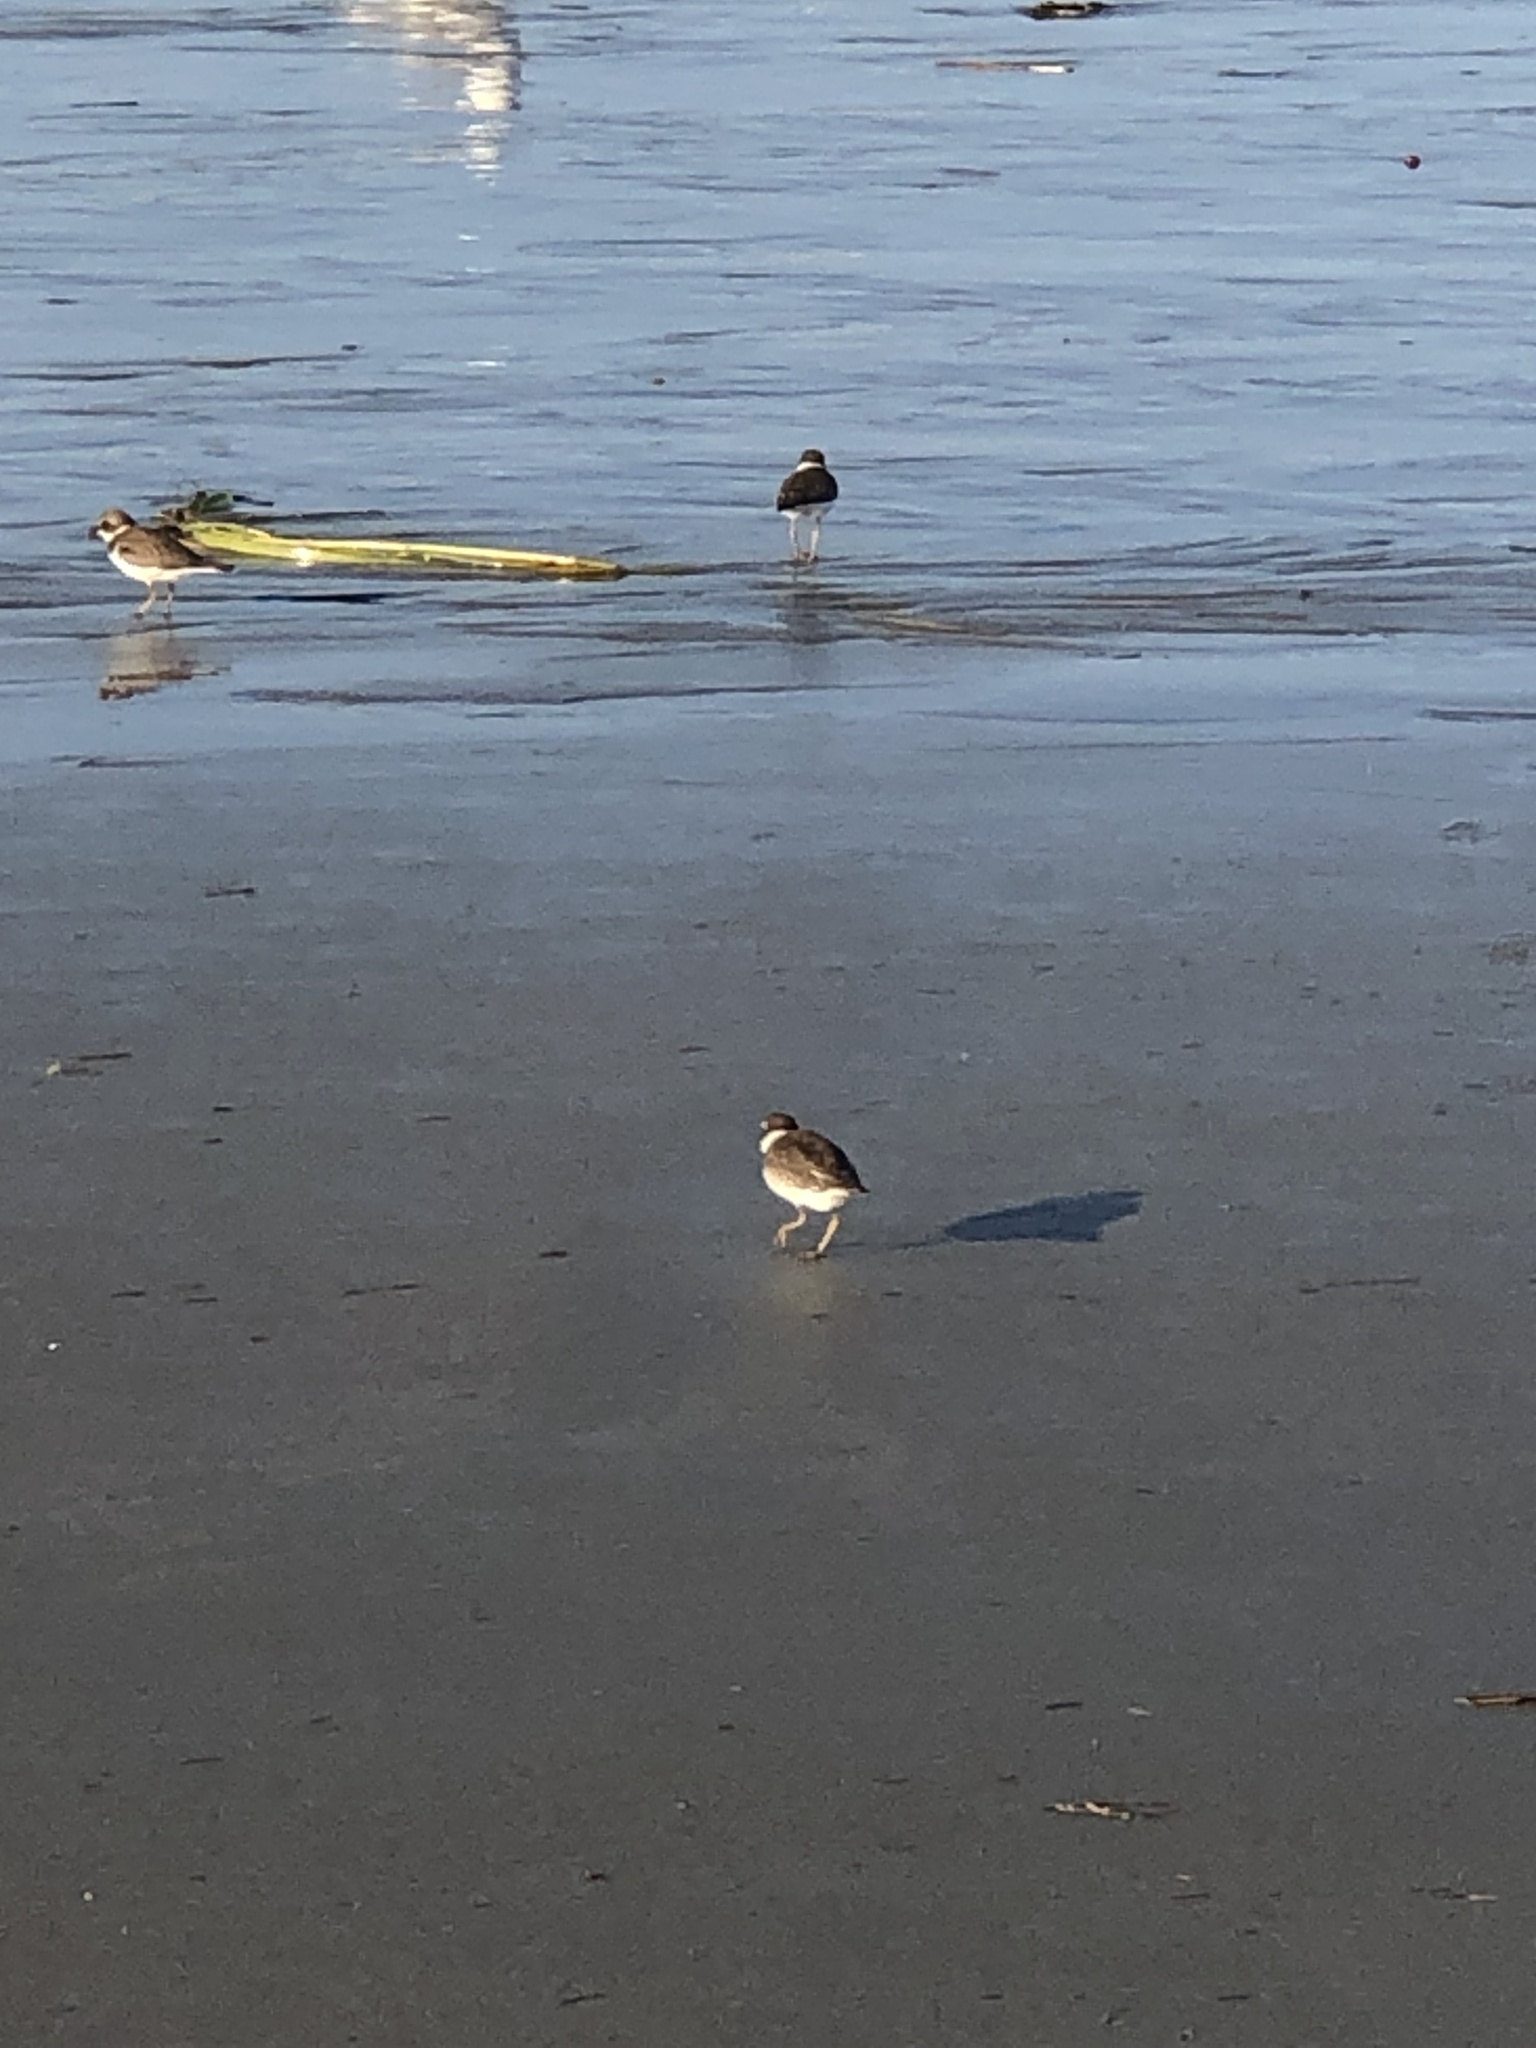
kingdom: Animalia
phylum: Chordata
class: Aves
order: Charadriiformes
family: Charadriidae
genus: Charadrius
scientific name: Charadrius semipalmatus
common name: Semipalmated plover
